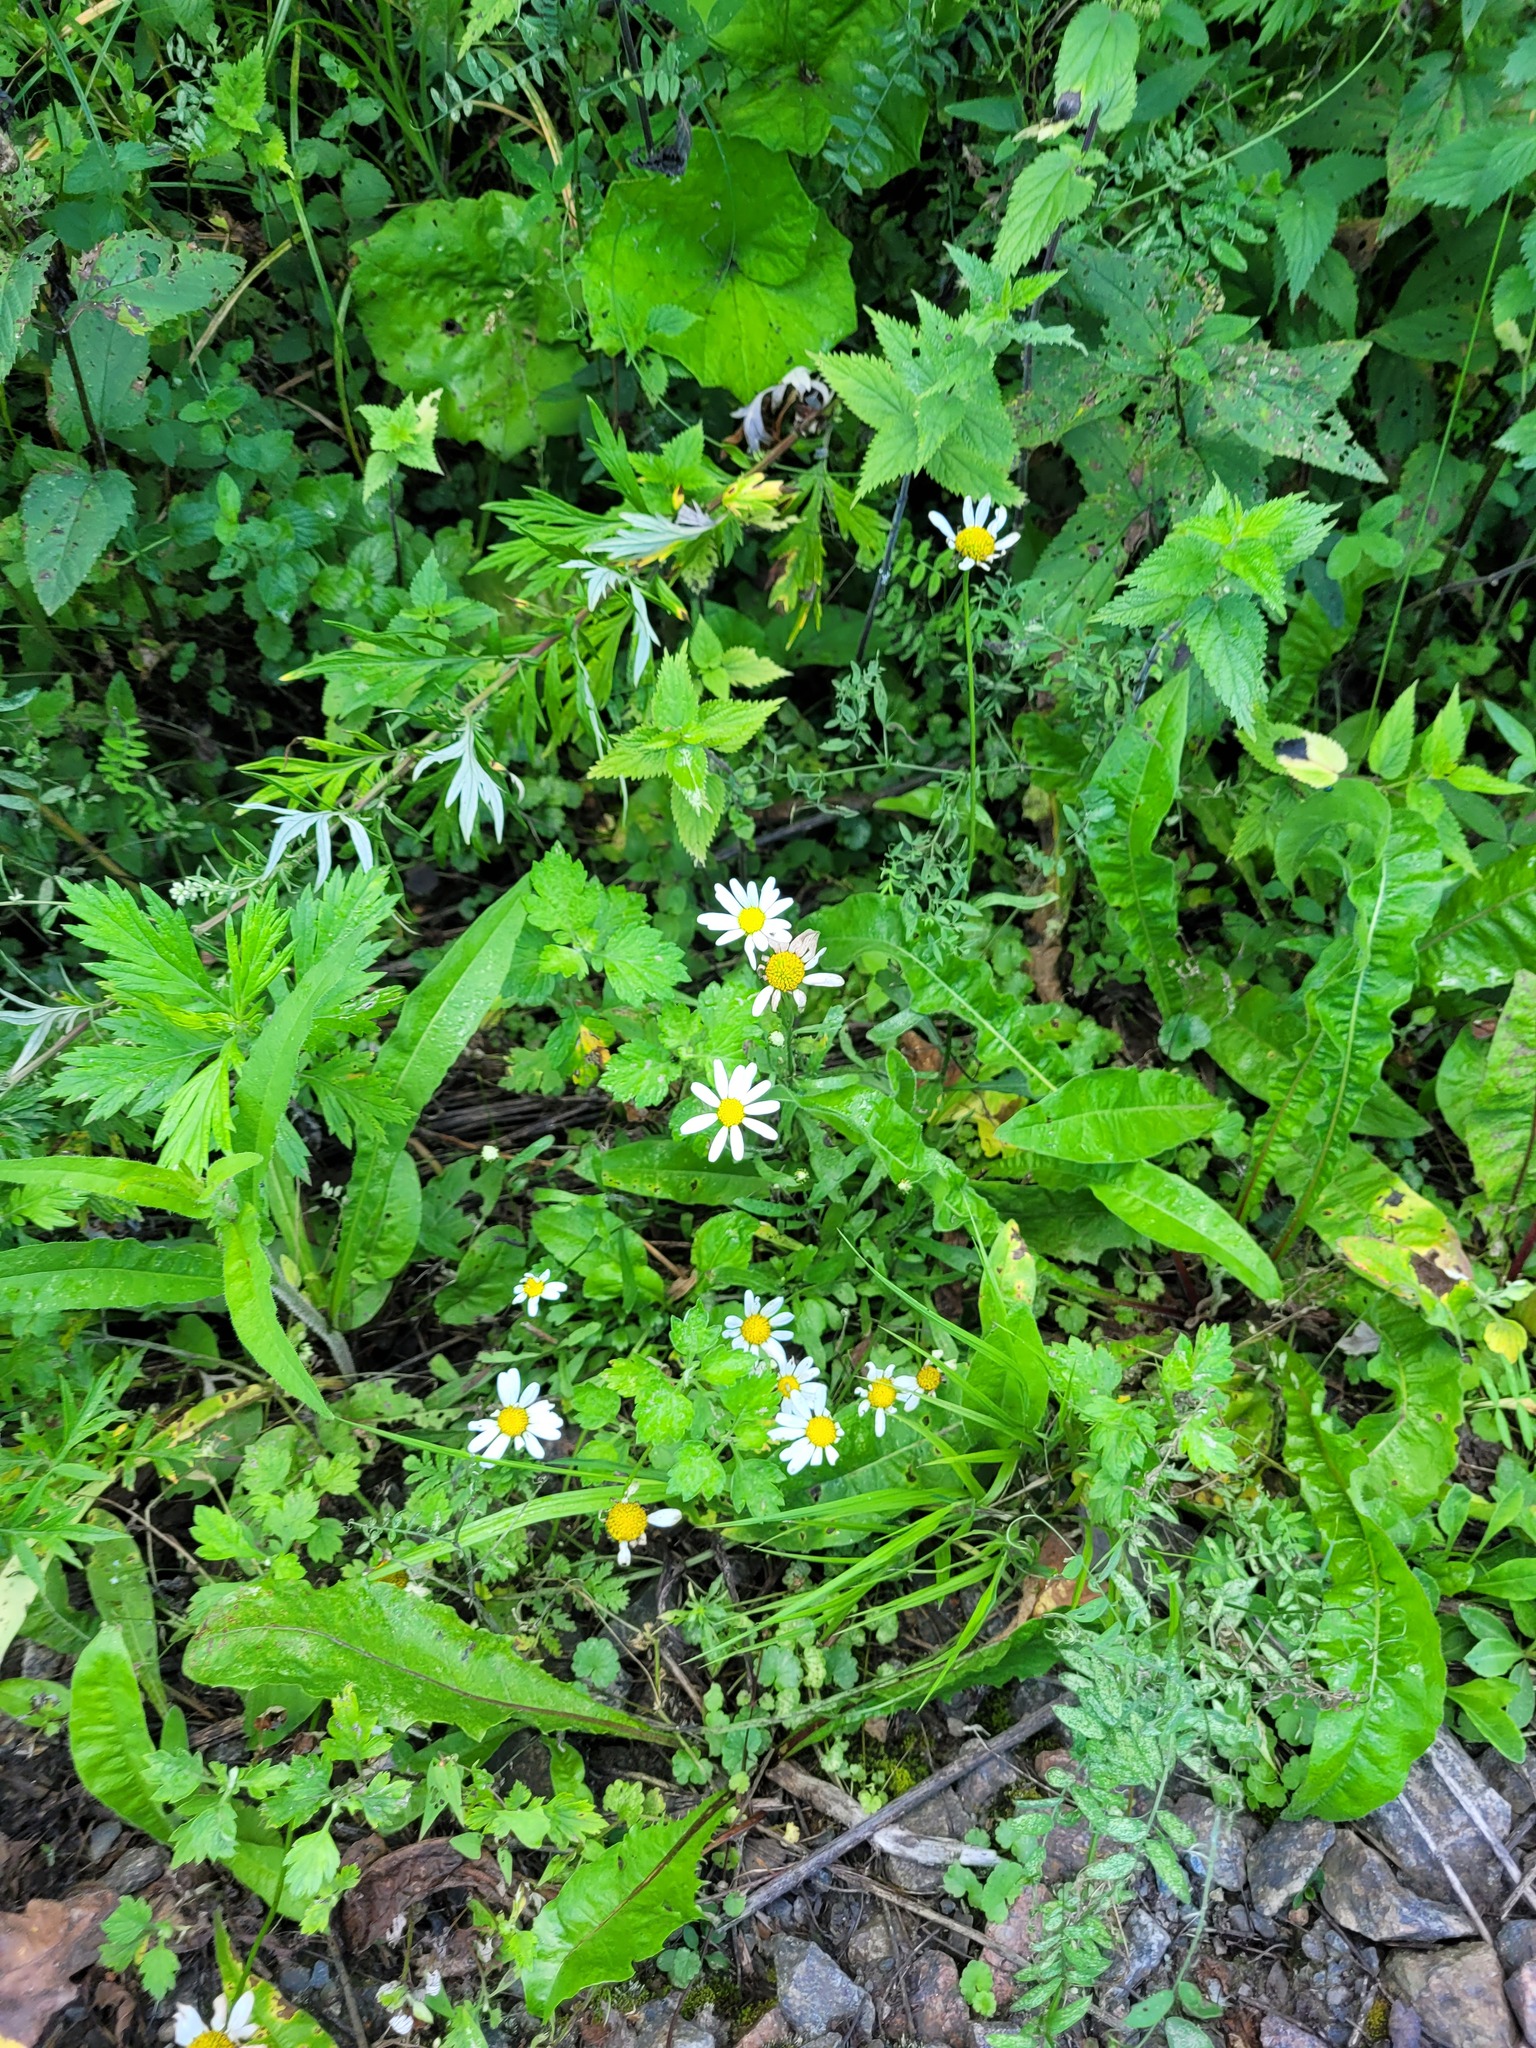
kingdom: Plantae
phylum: Tracheophyta
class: Magnoliopsida
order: Asterales
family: Asteraceae
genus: Tripleurospermum
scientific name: Tripleurospermum inodorum
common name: Scentless mayweed
